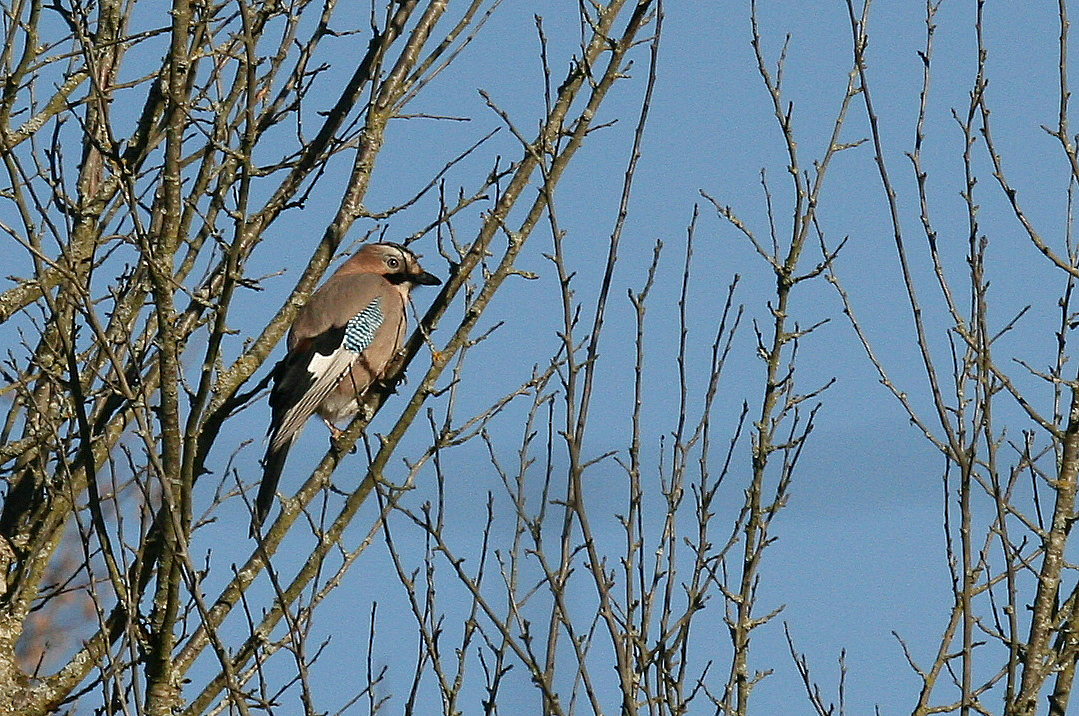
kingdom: Animalia
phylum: Chordata
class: Aves
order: Passeriformes
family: Corvidae
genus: Garrulus
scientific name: Garrulus glandarius
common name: Eurasian jay
